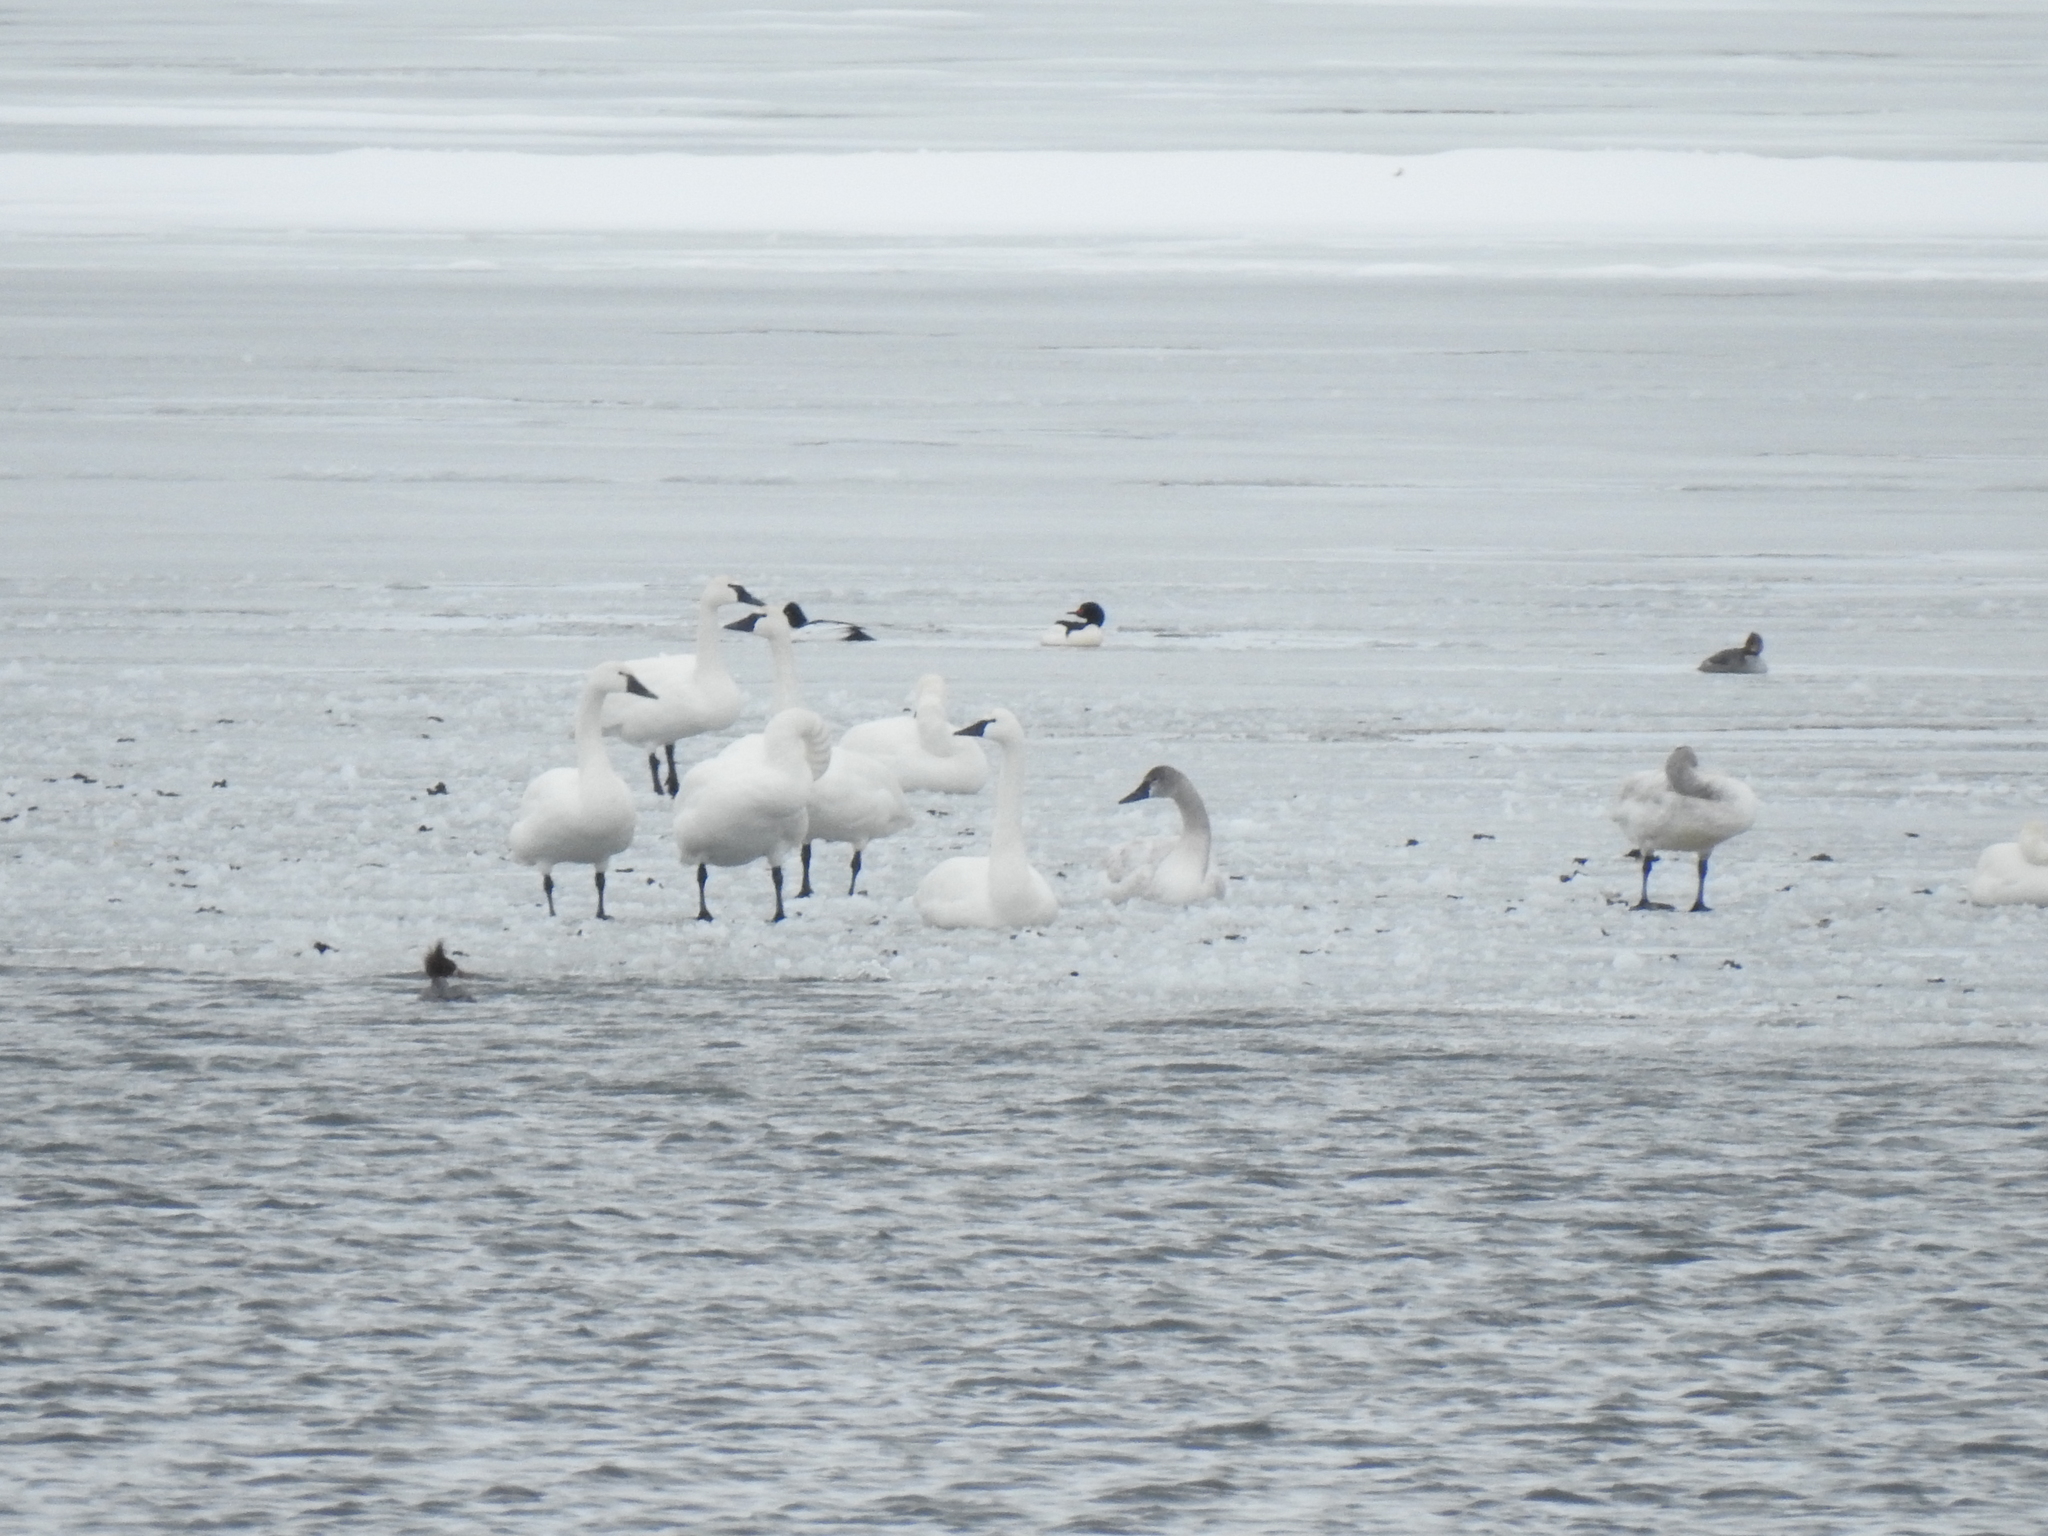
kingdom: Animalia
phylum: Chordata
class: Aves
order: Anseriformes
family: Anatidae
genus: Cygnus
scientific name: Cygnus columbianus
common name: Tundra swan
